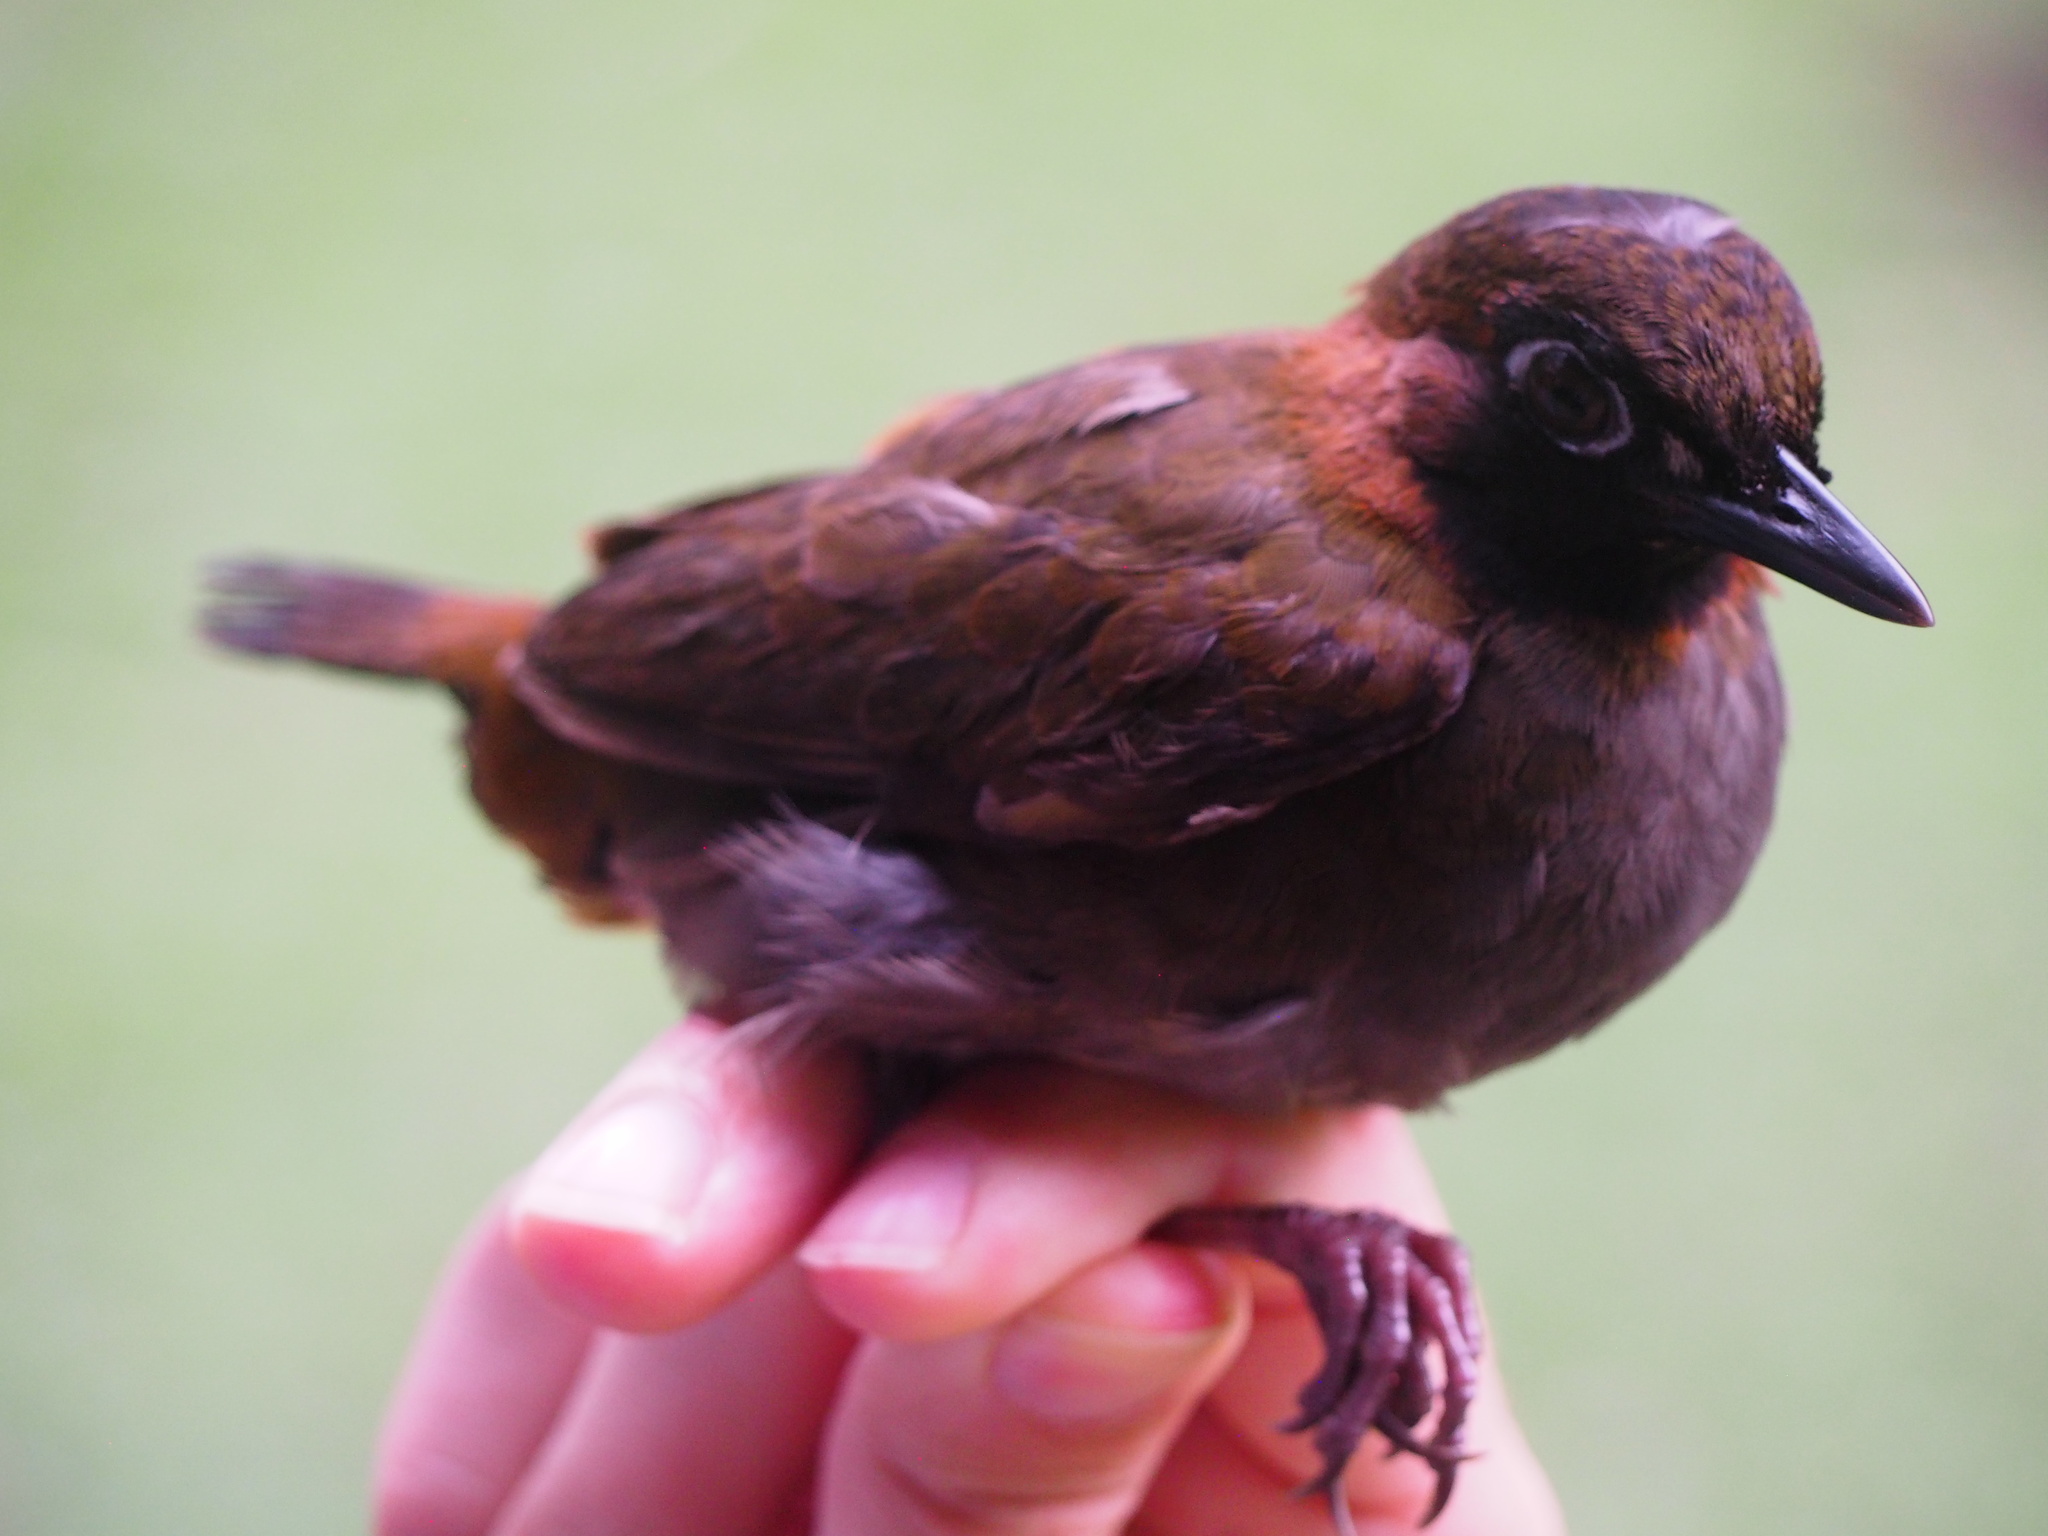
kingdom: Animalia
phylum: Chordata
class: Aves
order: Passeriformes
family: Formicariidae
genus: Formicarius
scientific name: Formicarius moniliger
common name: Mayan antthrush
